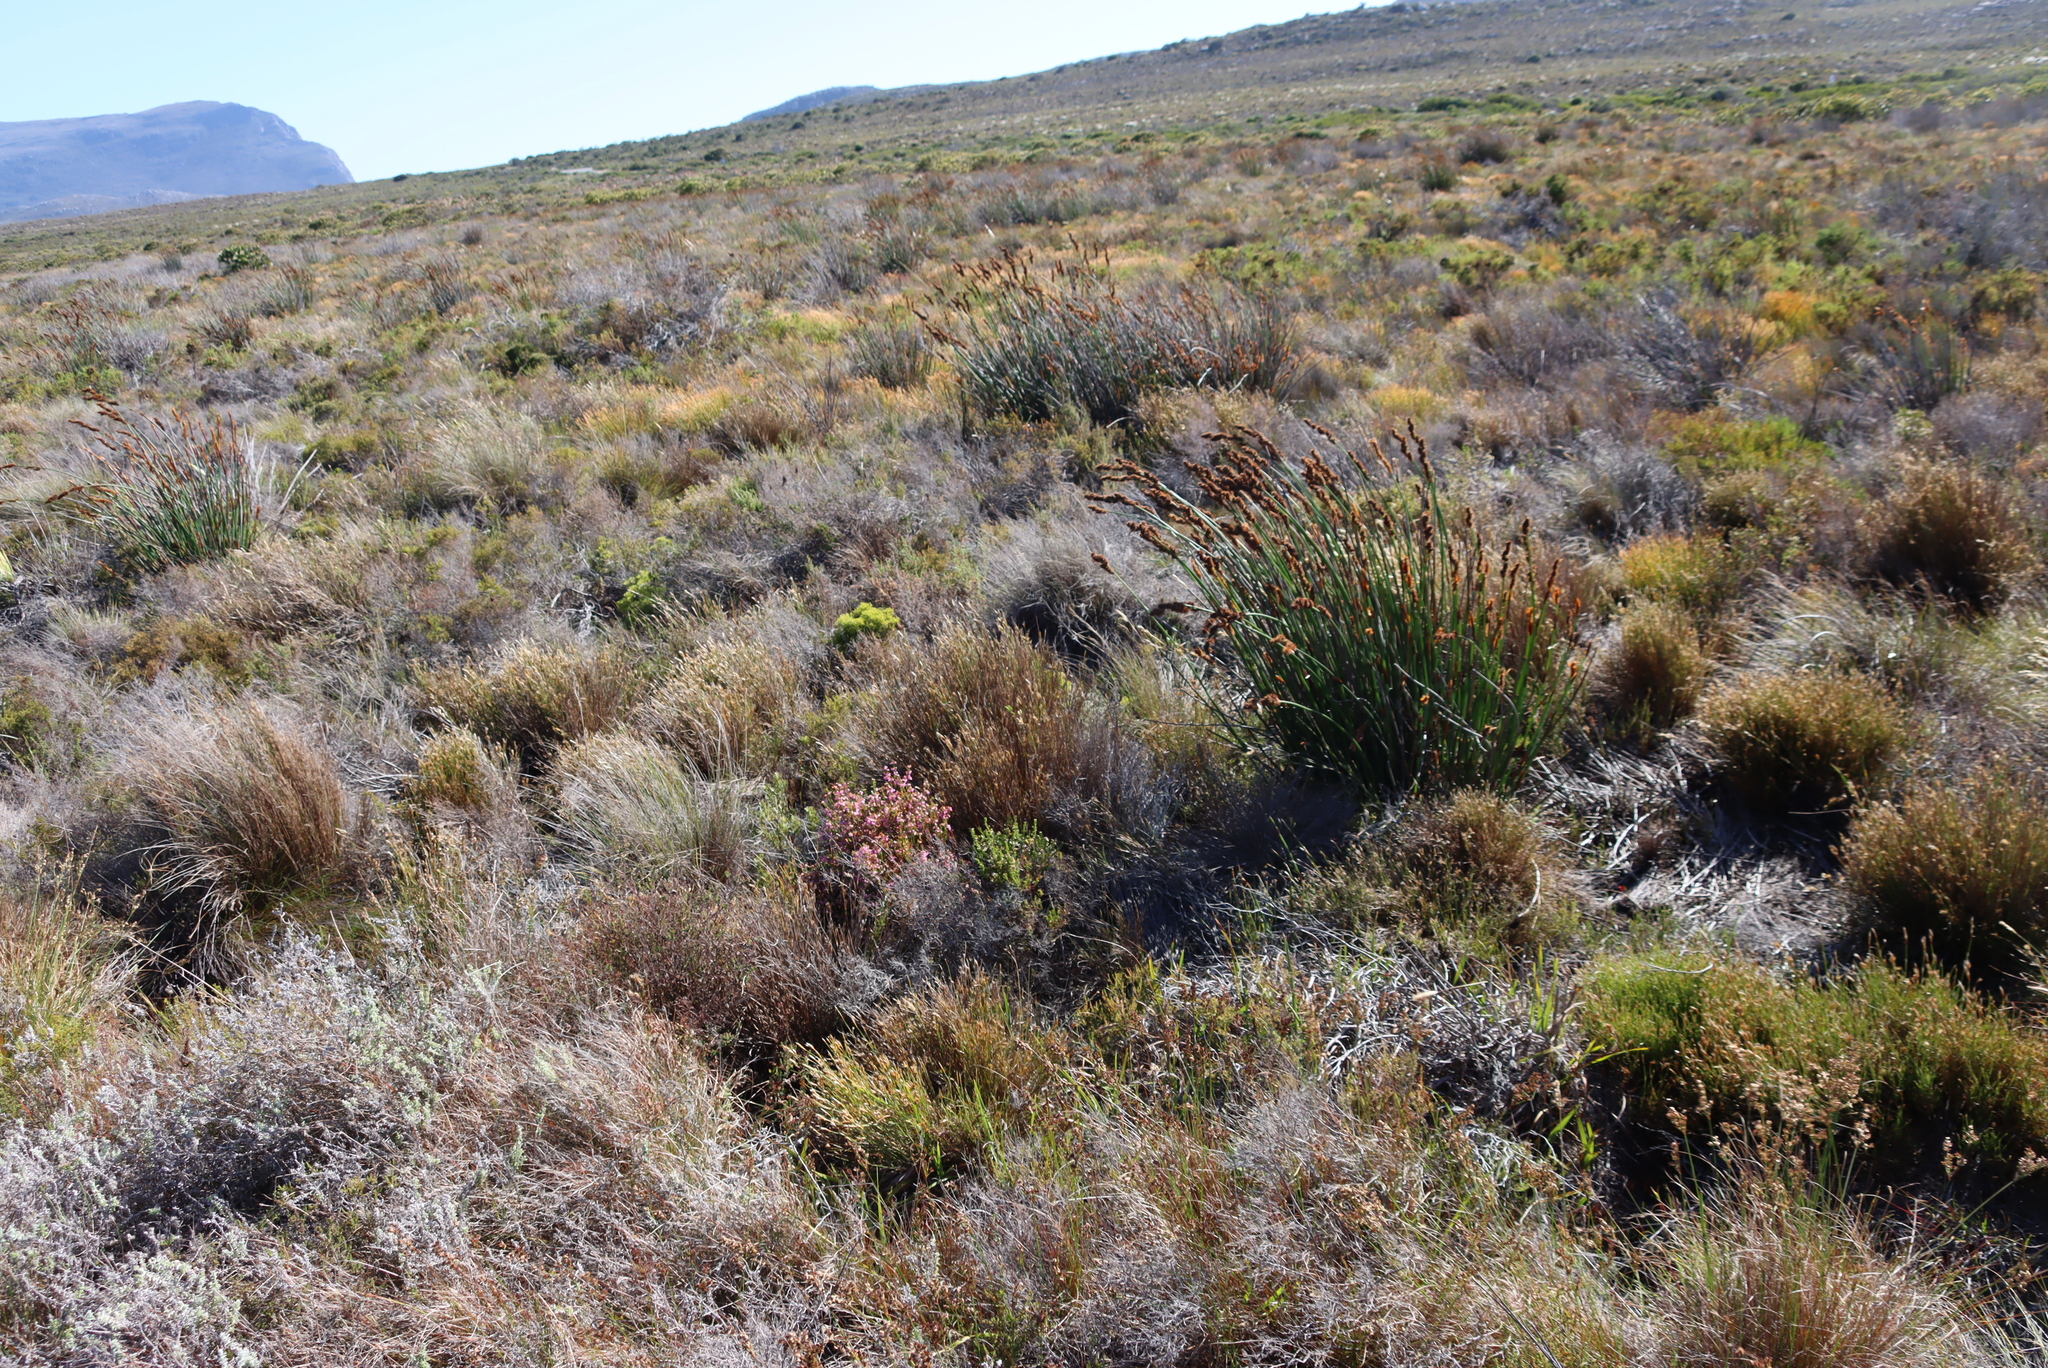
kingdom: Plantae
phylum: Tracheophyta
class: Magnoliopsida
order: Ericales
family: Ericaceae
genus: Erica
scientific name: Erica laeta
